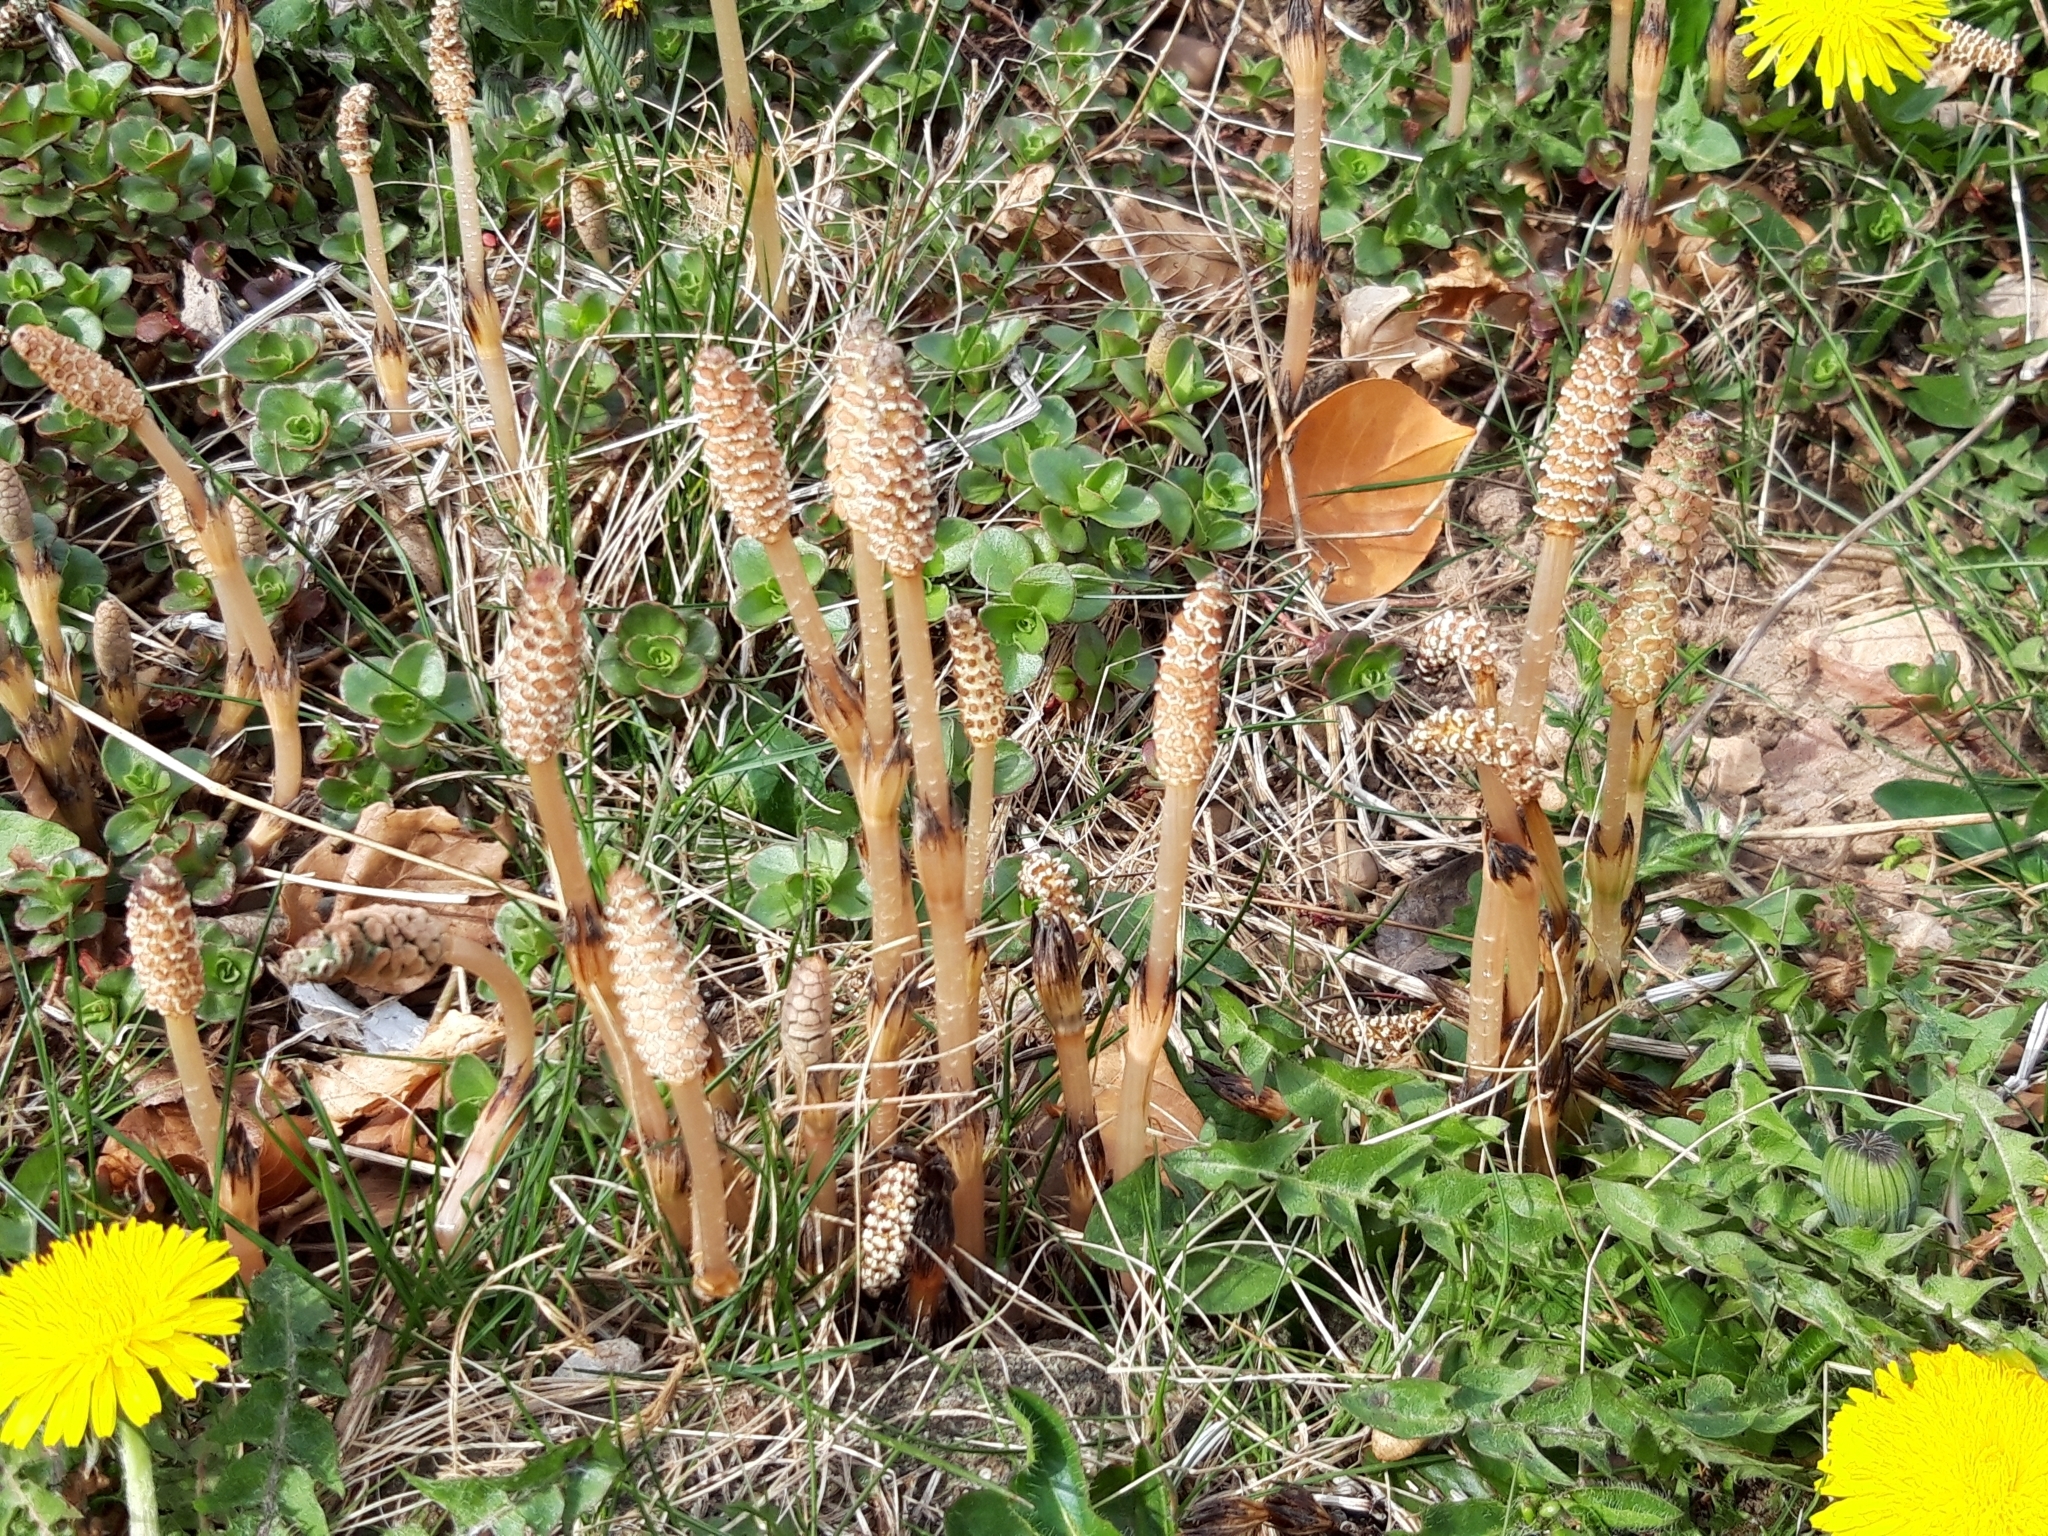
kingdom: Plantae
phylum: Tracheophyta
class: Polypodiopsida
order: Equisetales
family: Equisetaceae
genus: Equisetum
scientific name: Equisetum arvense
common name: Field horsetail
